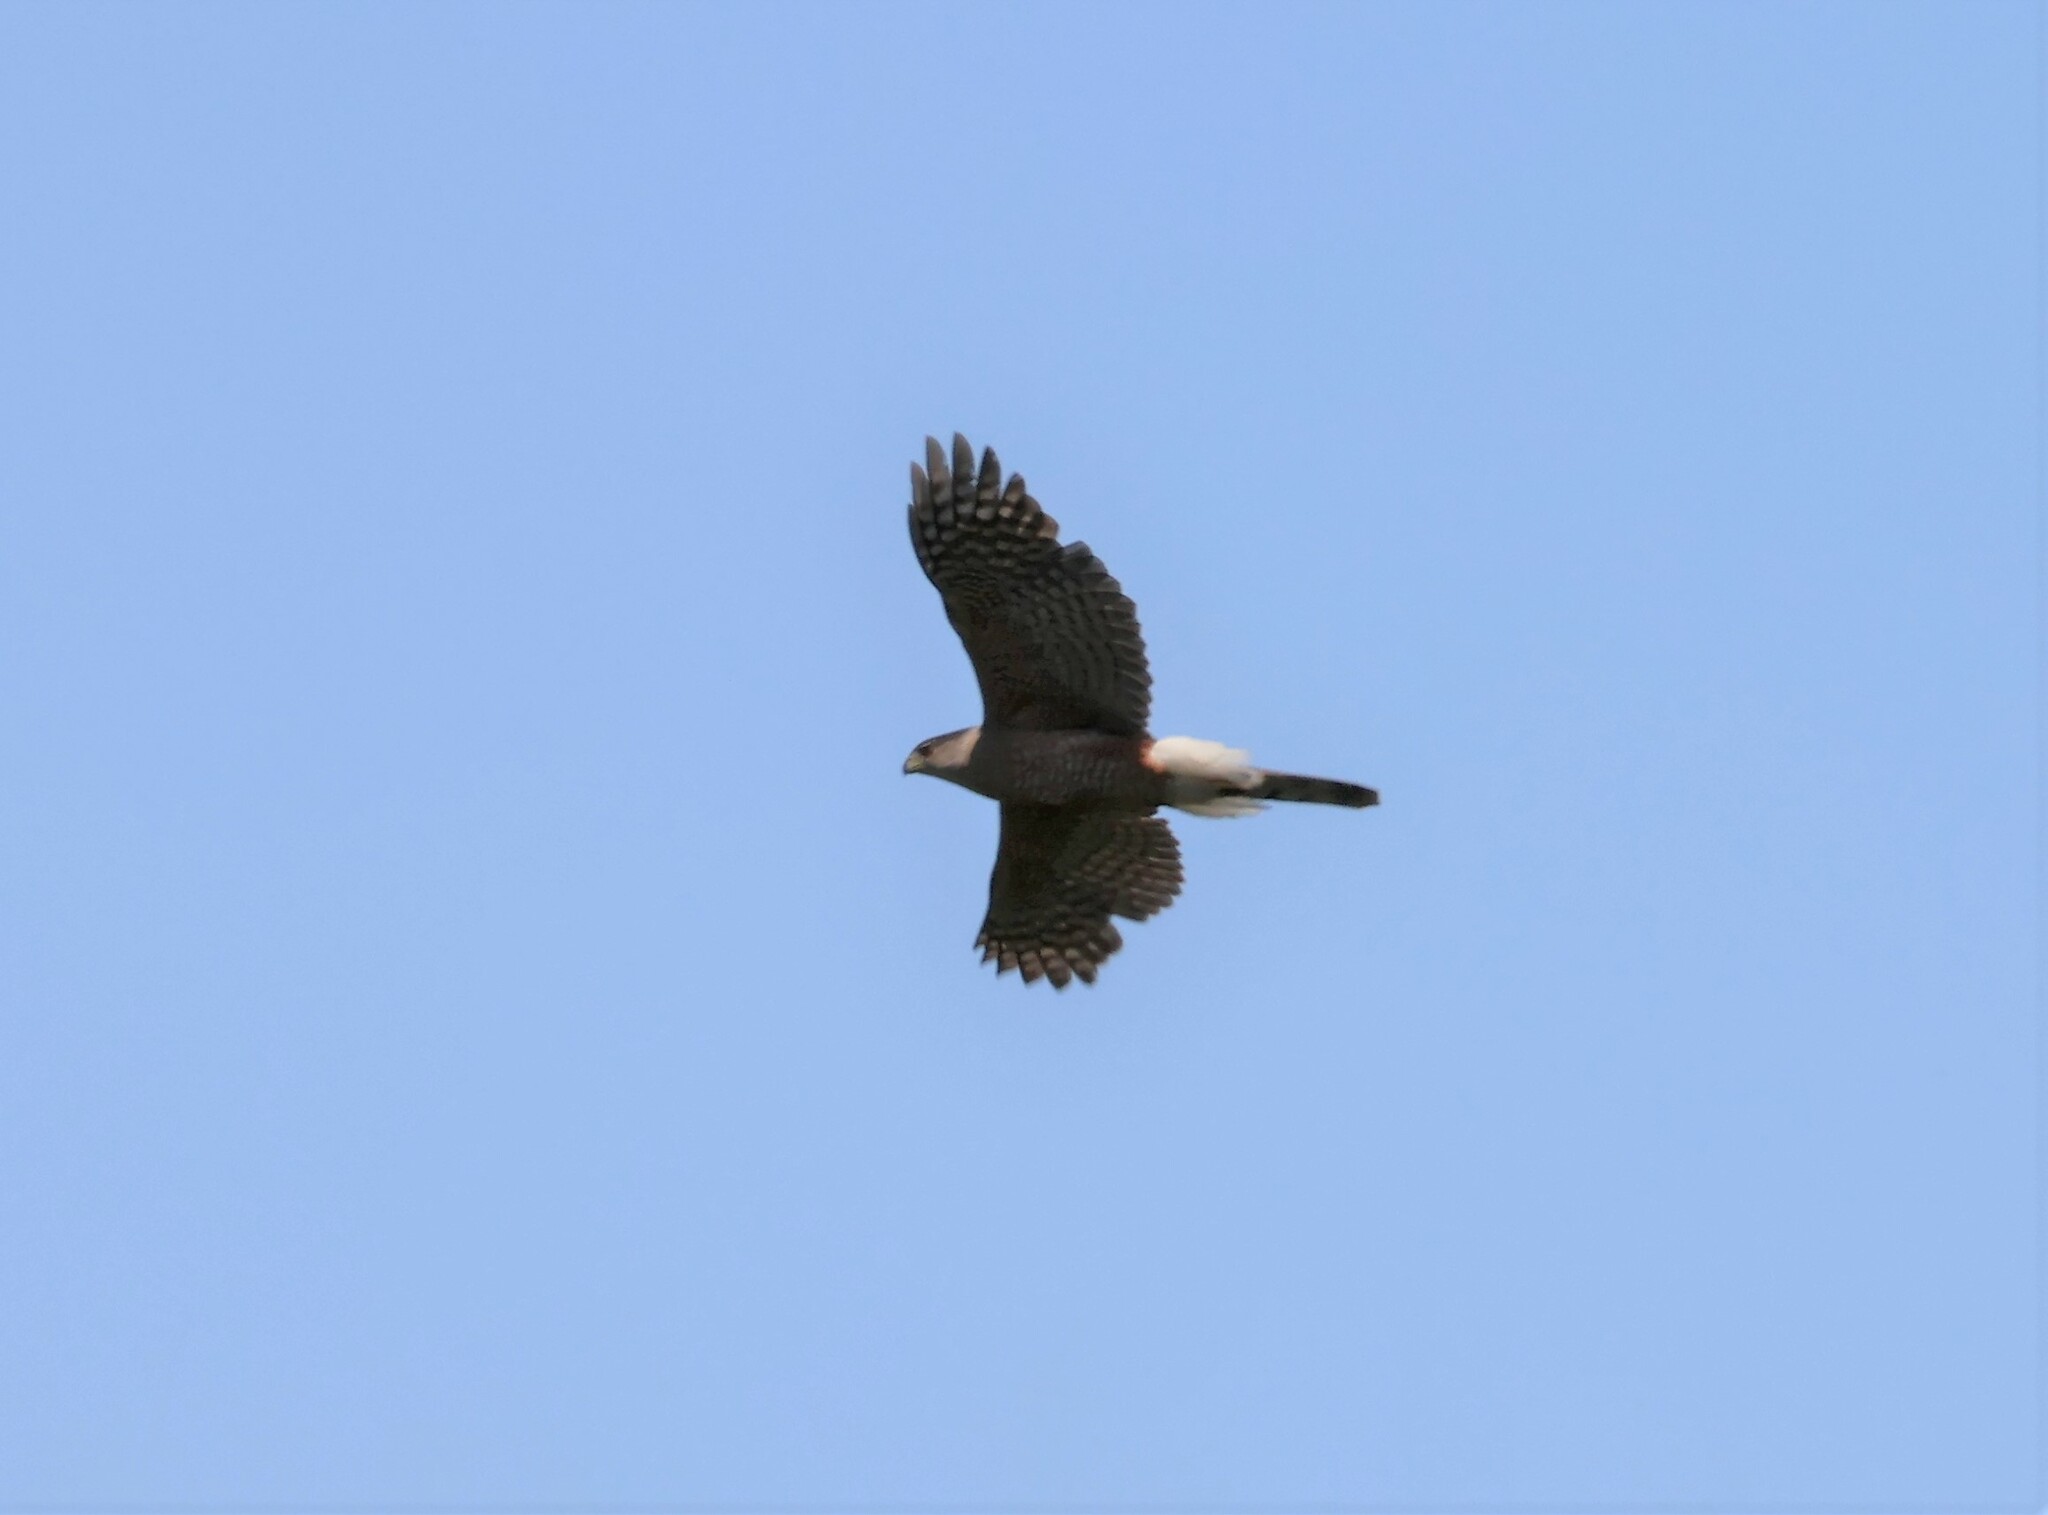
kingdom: Animalia
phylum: Chordata
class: Aves
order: Accipitriformes
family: Accipitridae
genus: Accipiter
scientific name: Accipiter cooperii
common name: Cooper's hawk
